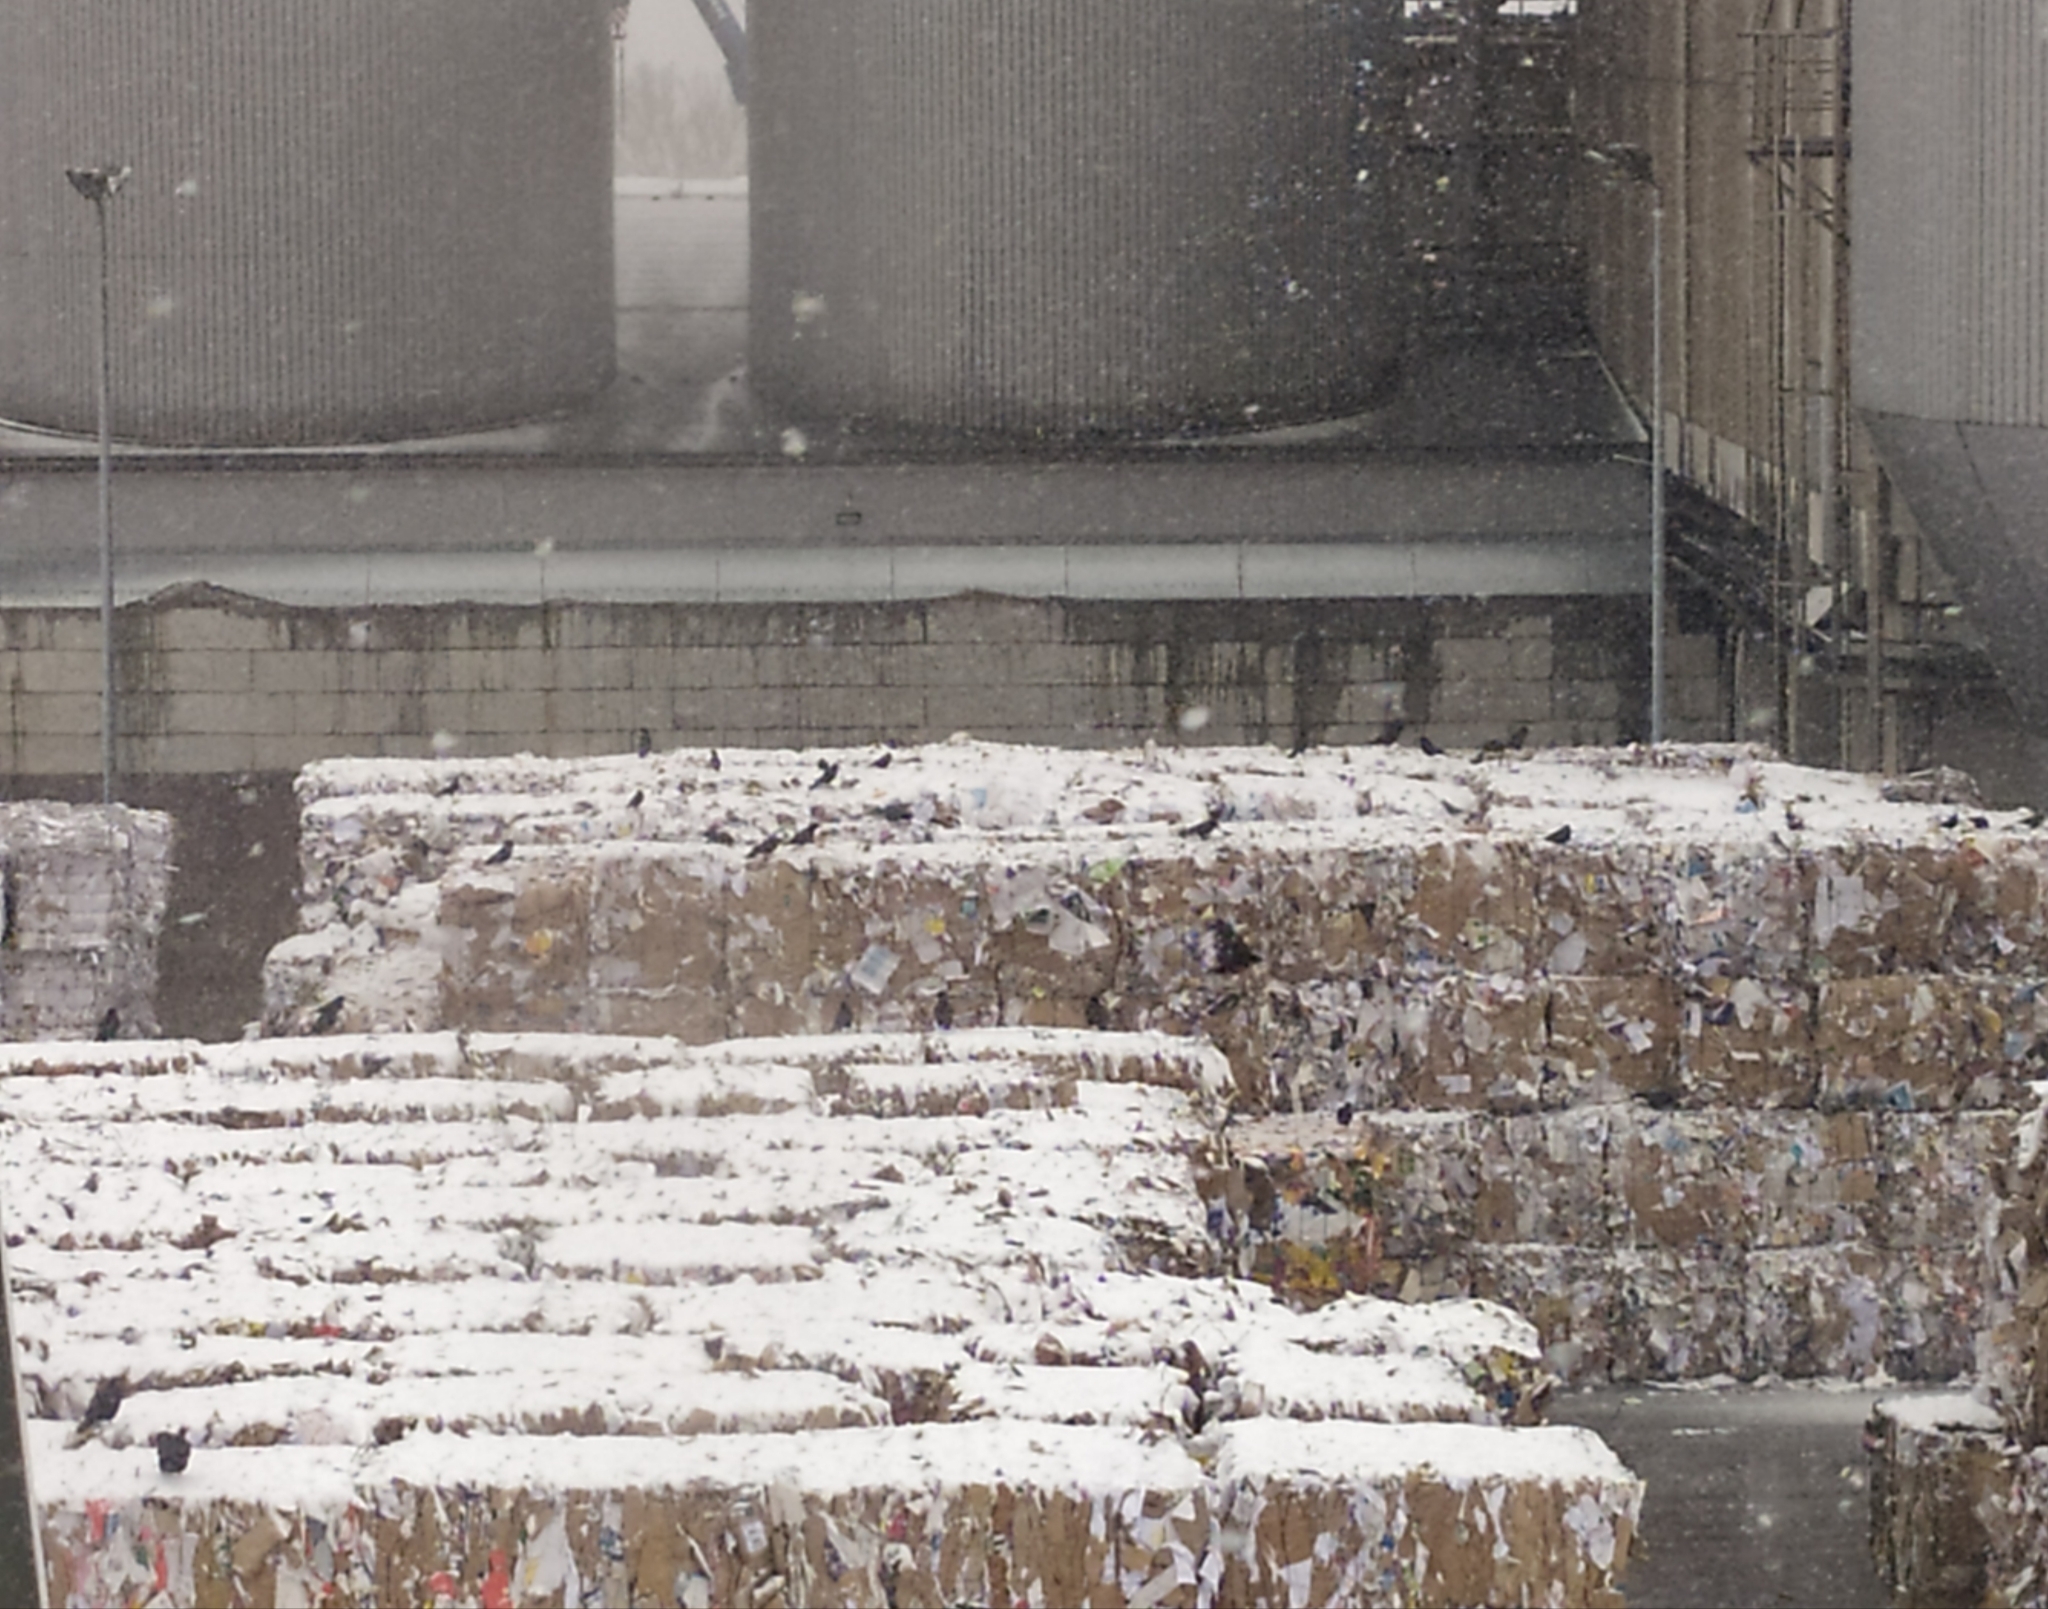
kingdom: Animalia
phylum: Chordata
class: Aves
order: Passeriformes
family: Corvidae
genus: Corvus
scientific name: Corvus corone
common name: Carrion crow
